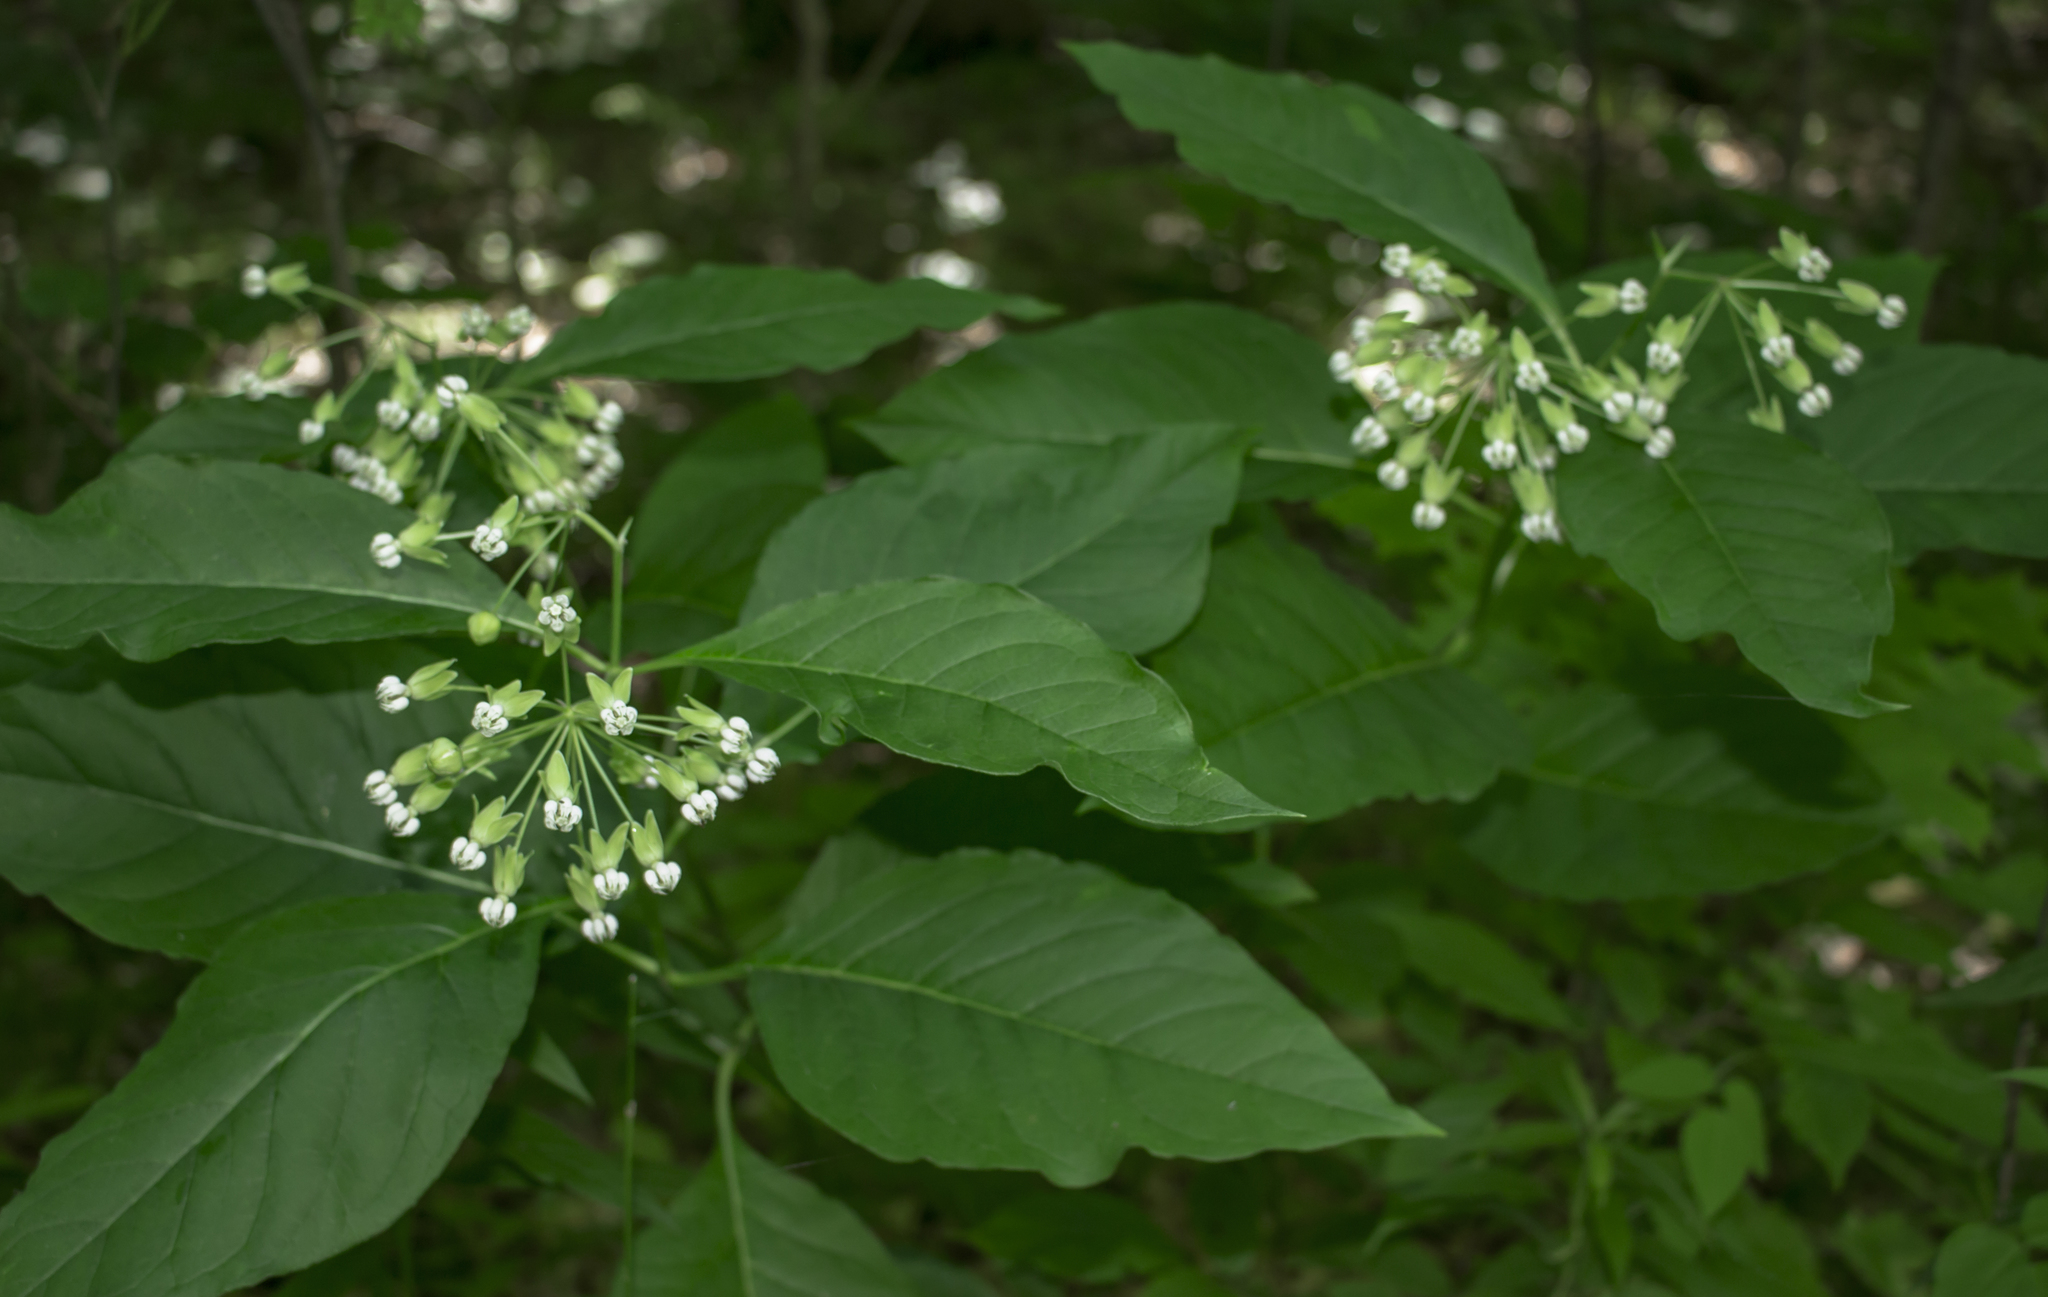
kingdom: Plantae
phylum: Tracheophyta
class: Magnoliopsida
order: Gentianales
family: Apocynaceae
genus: Asclepias
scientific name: Asclepias exaltata
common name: Poke milkweed
